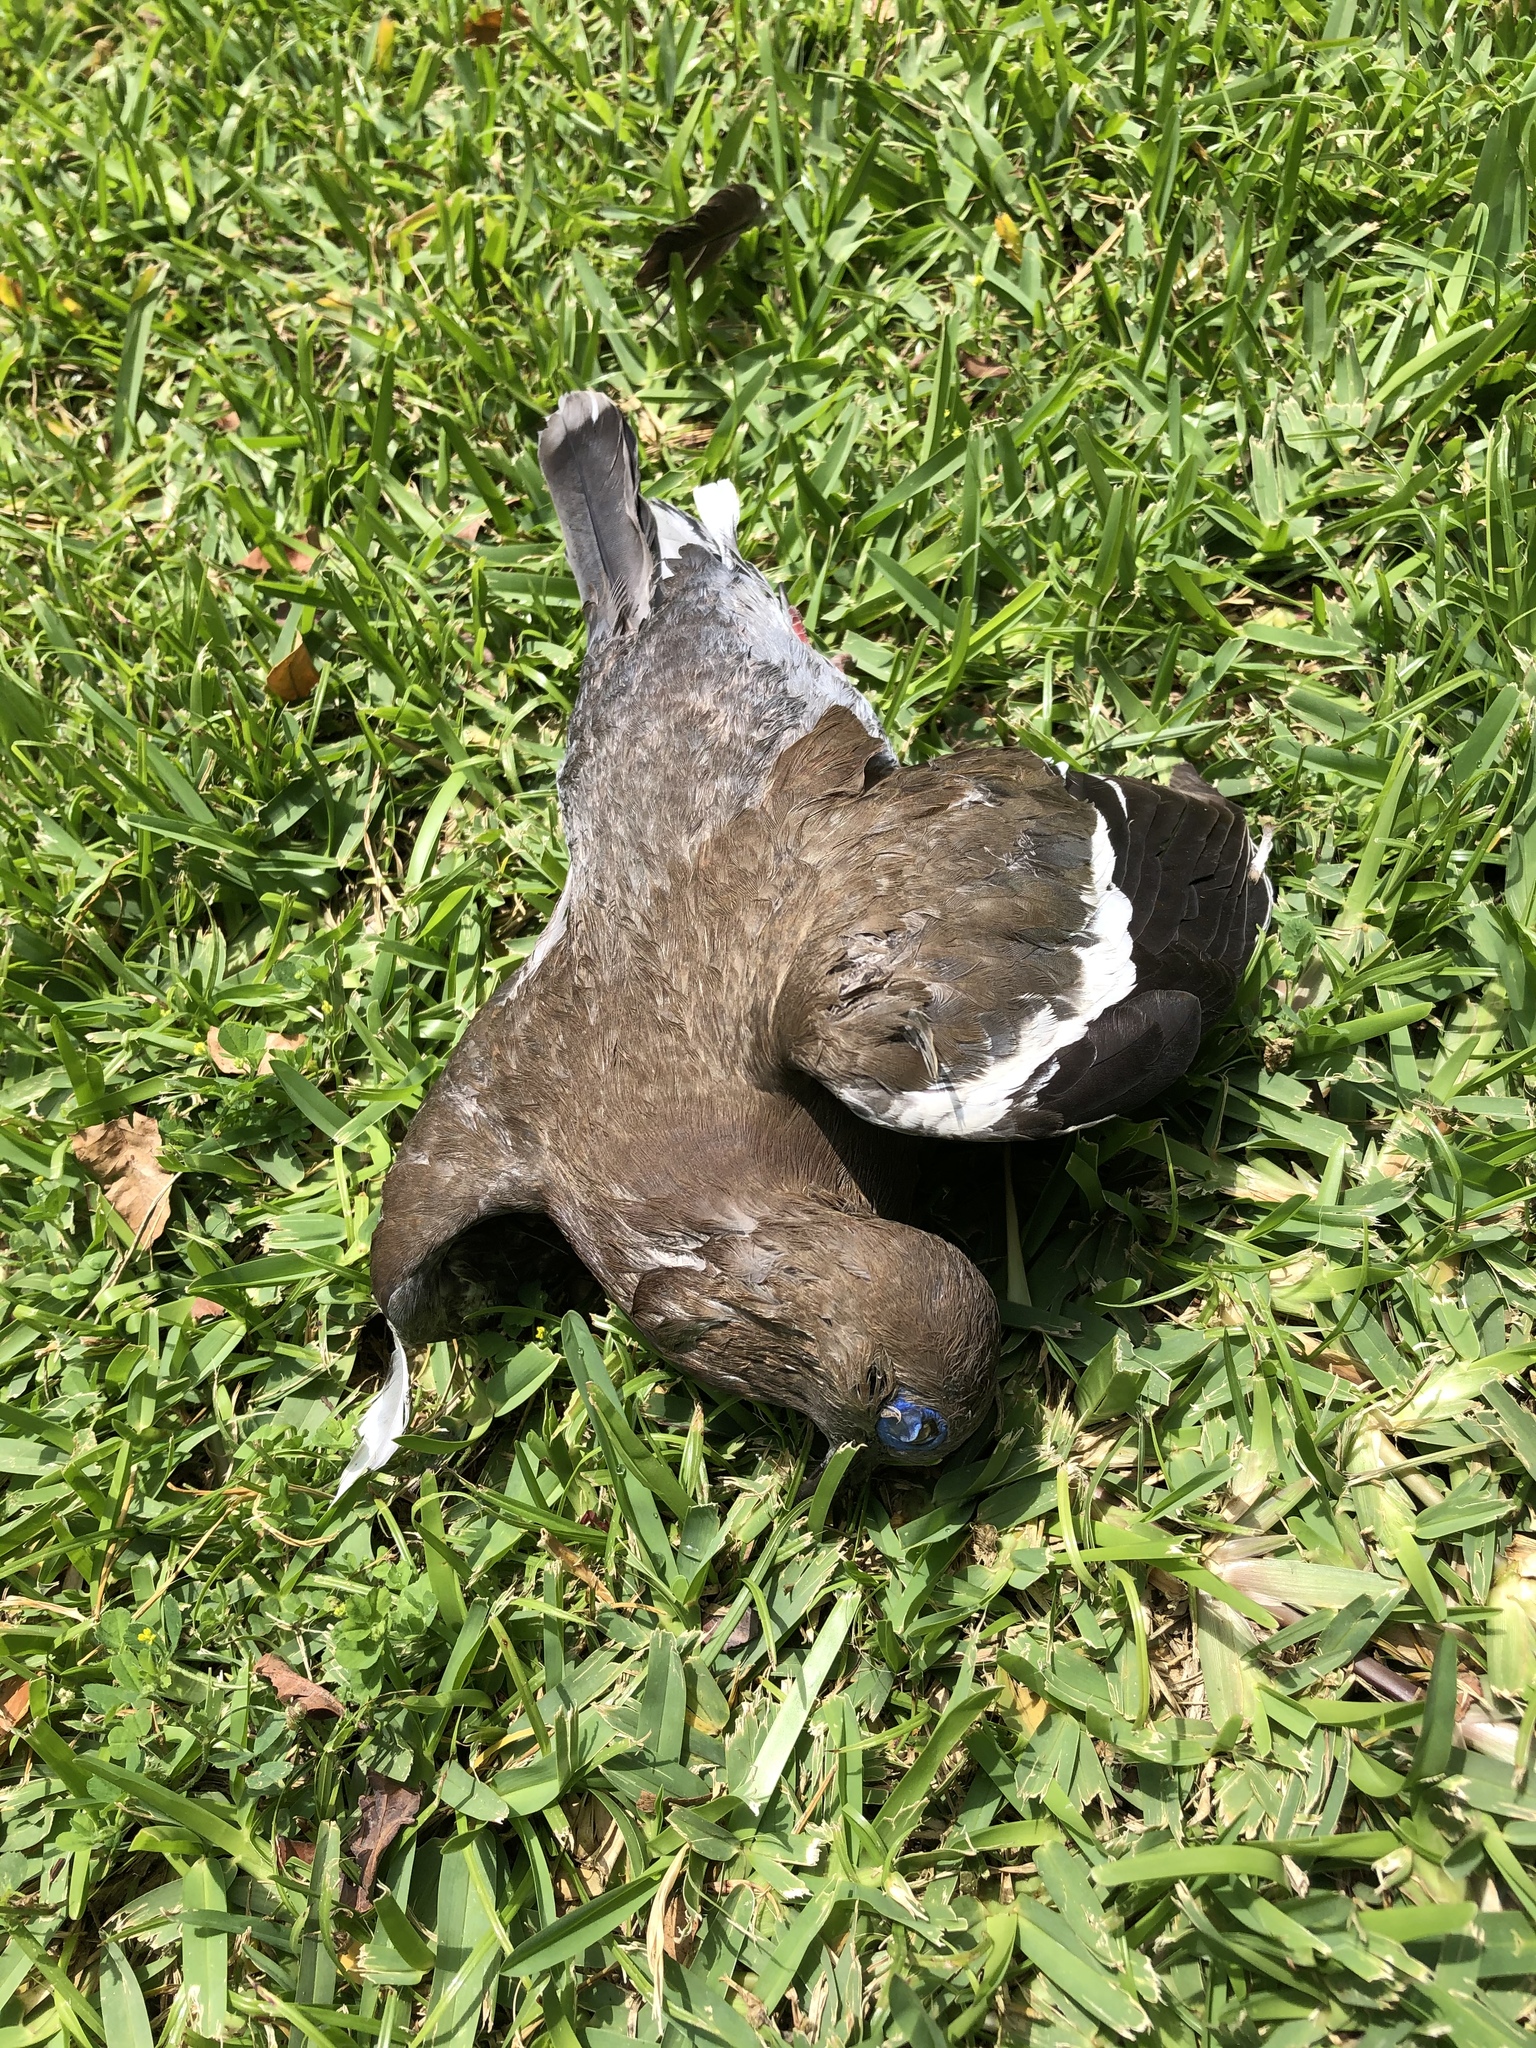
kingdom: Animalia
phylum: Chordata
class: Aves
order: Columbiformes
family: Columbidae
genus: Zenaida
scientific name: Zenaida meloda
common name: West peruvian dove
